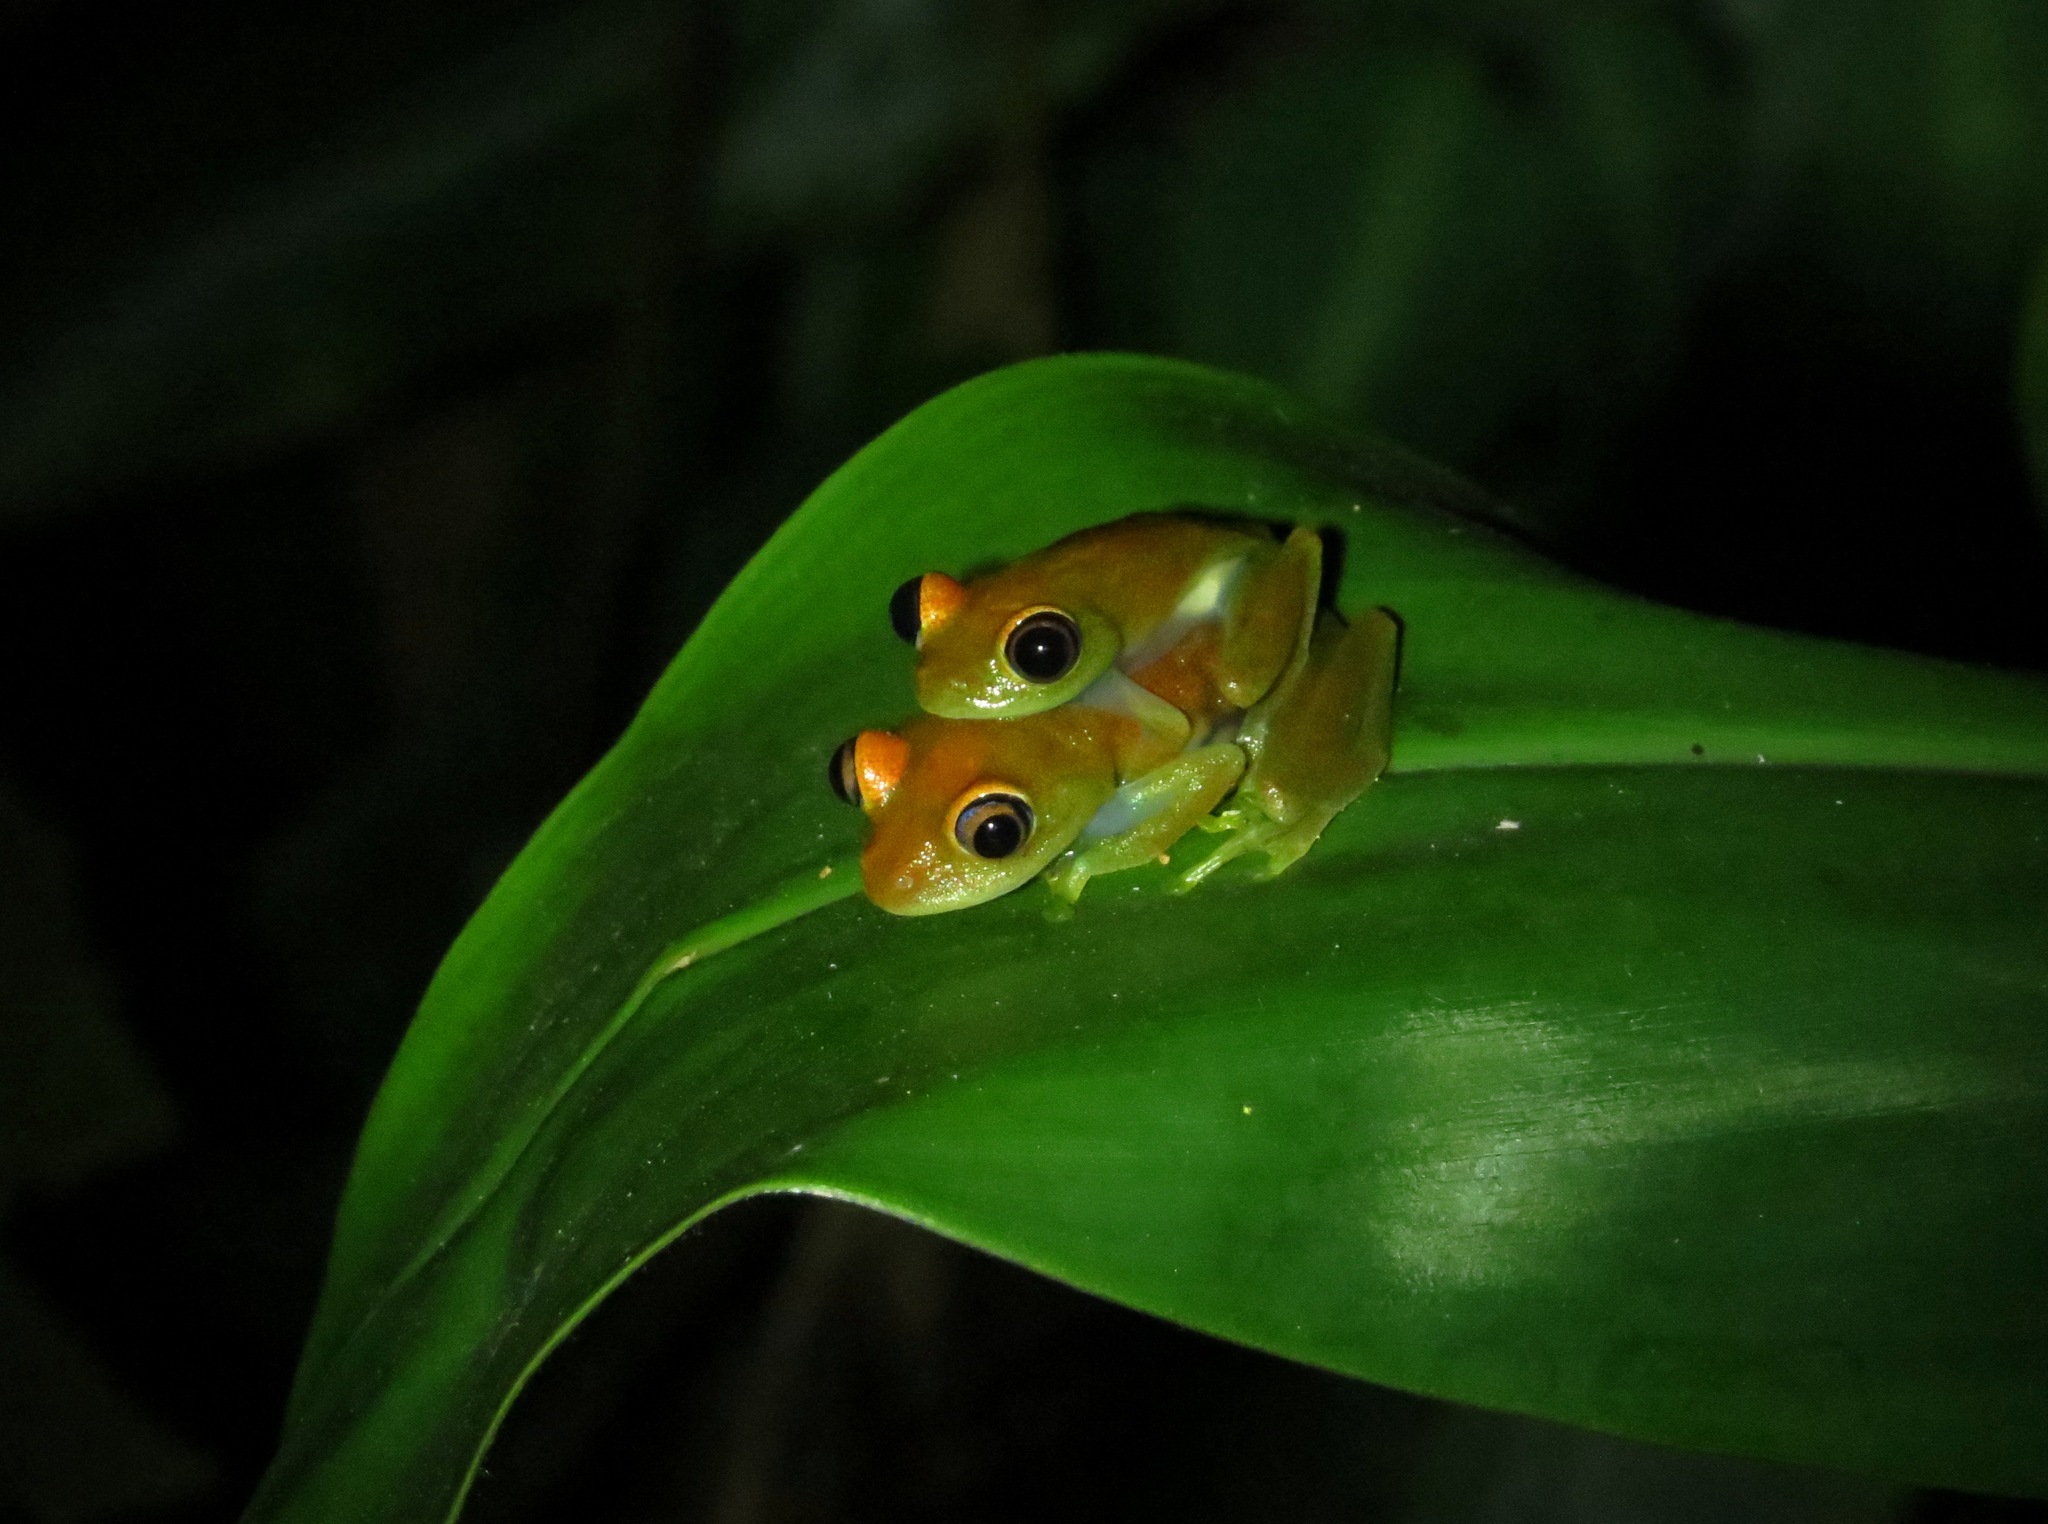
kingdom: Animalia
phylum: Chordata
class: Amphibia
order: Anura
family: Mantellidae
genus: Boophis
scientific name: Boophis viridis
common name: Green bright-eyed frog
